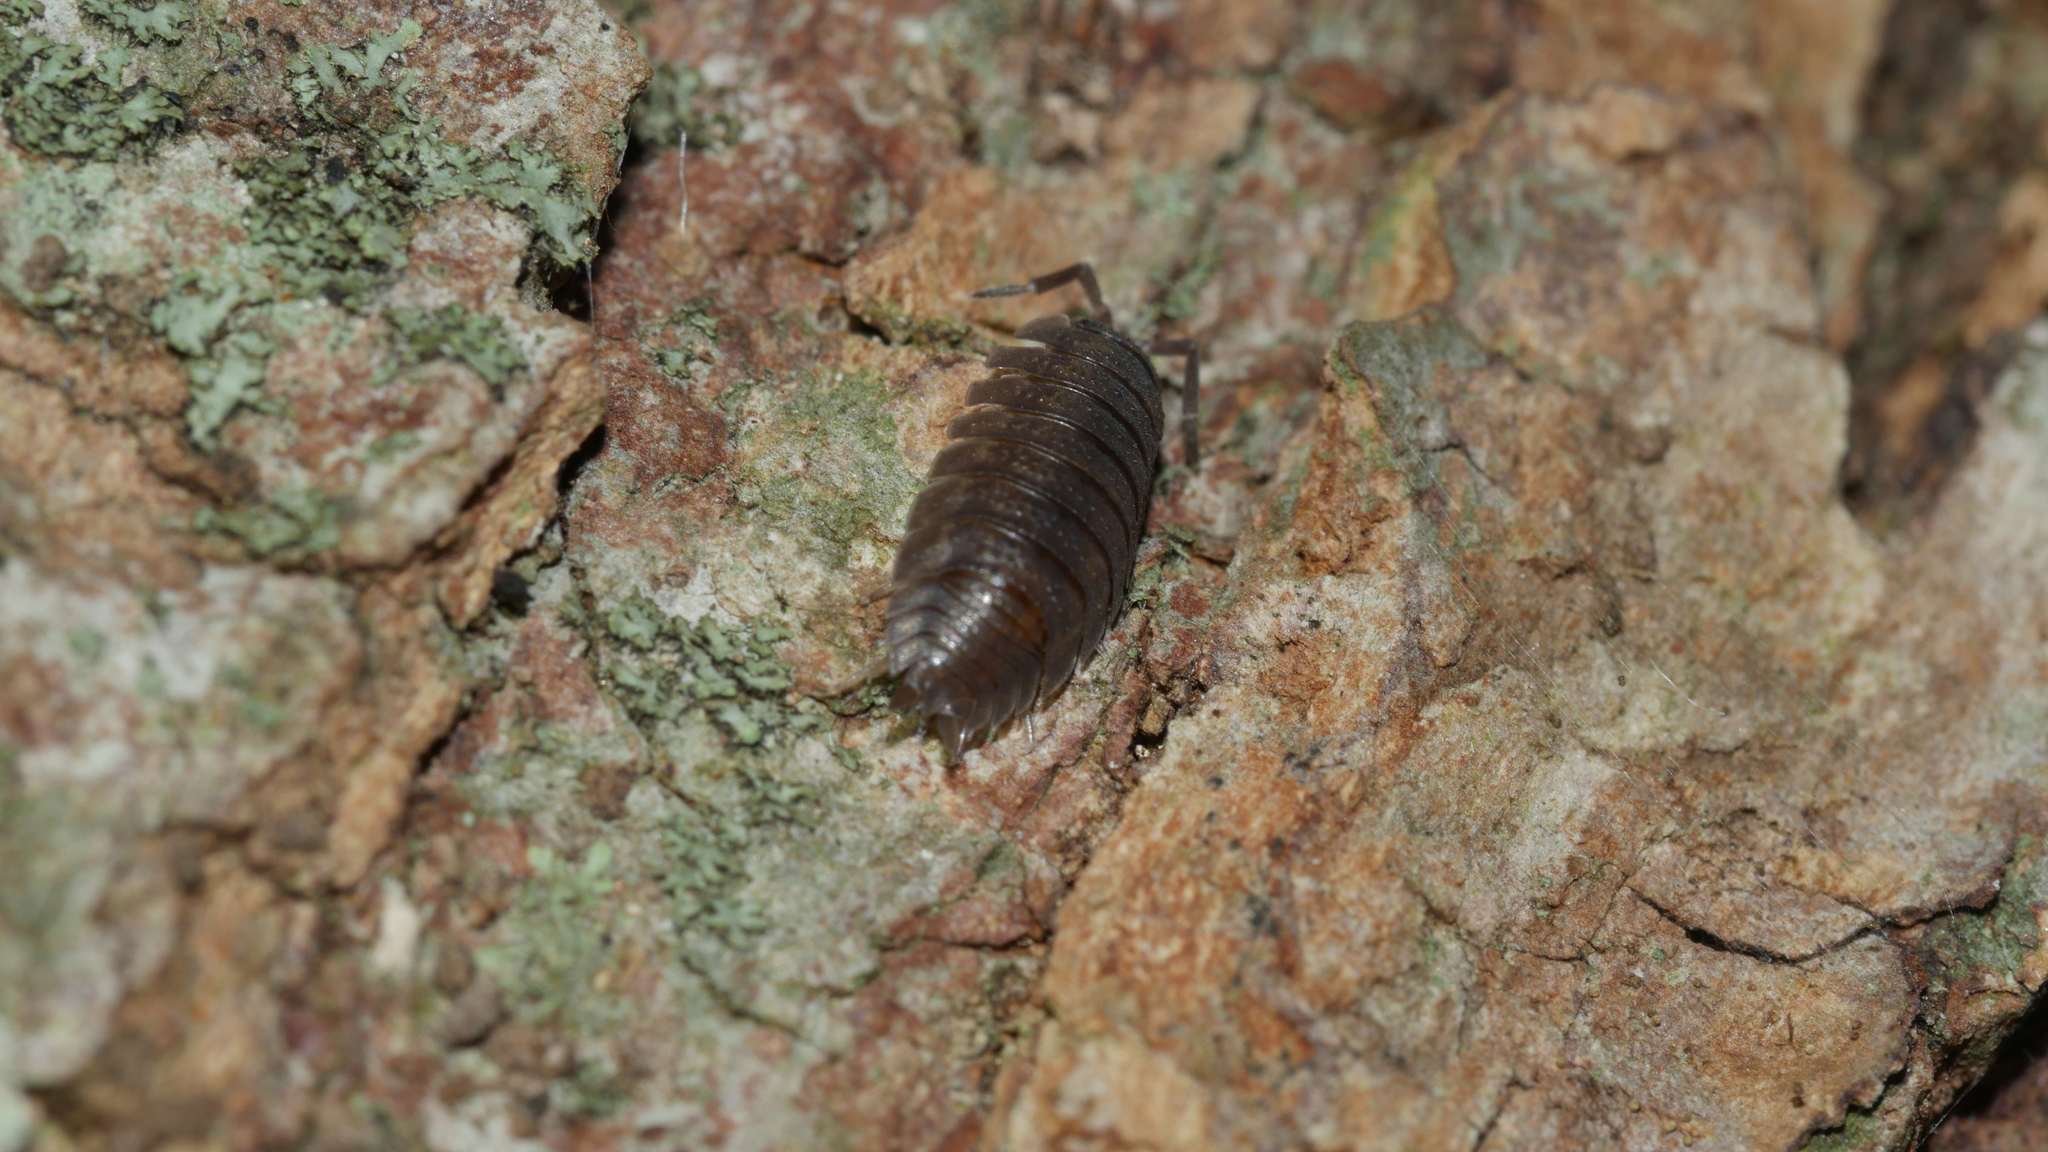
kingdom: Animalia
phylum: Arthropoda
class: Malacostraca
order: Isopoda
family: Porcellionidae
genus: Porcellio
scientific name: Porcellio scaber
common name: Common rough woodlouse
